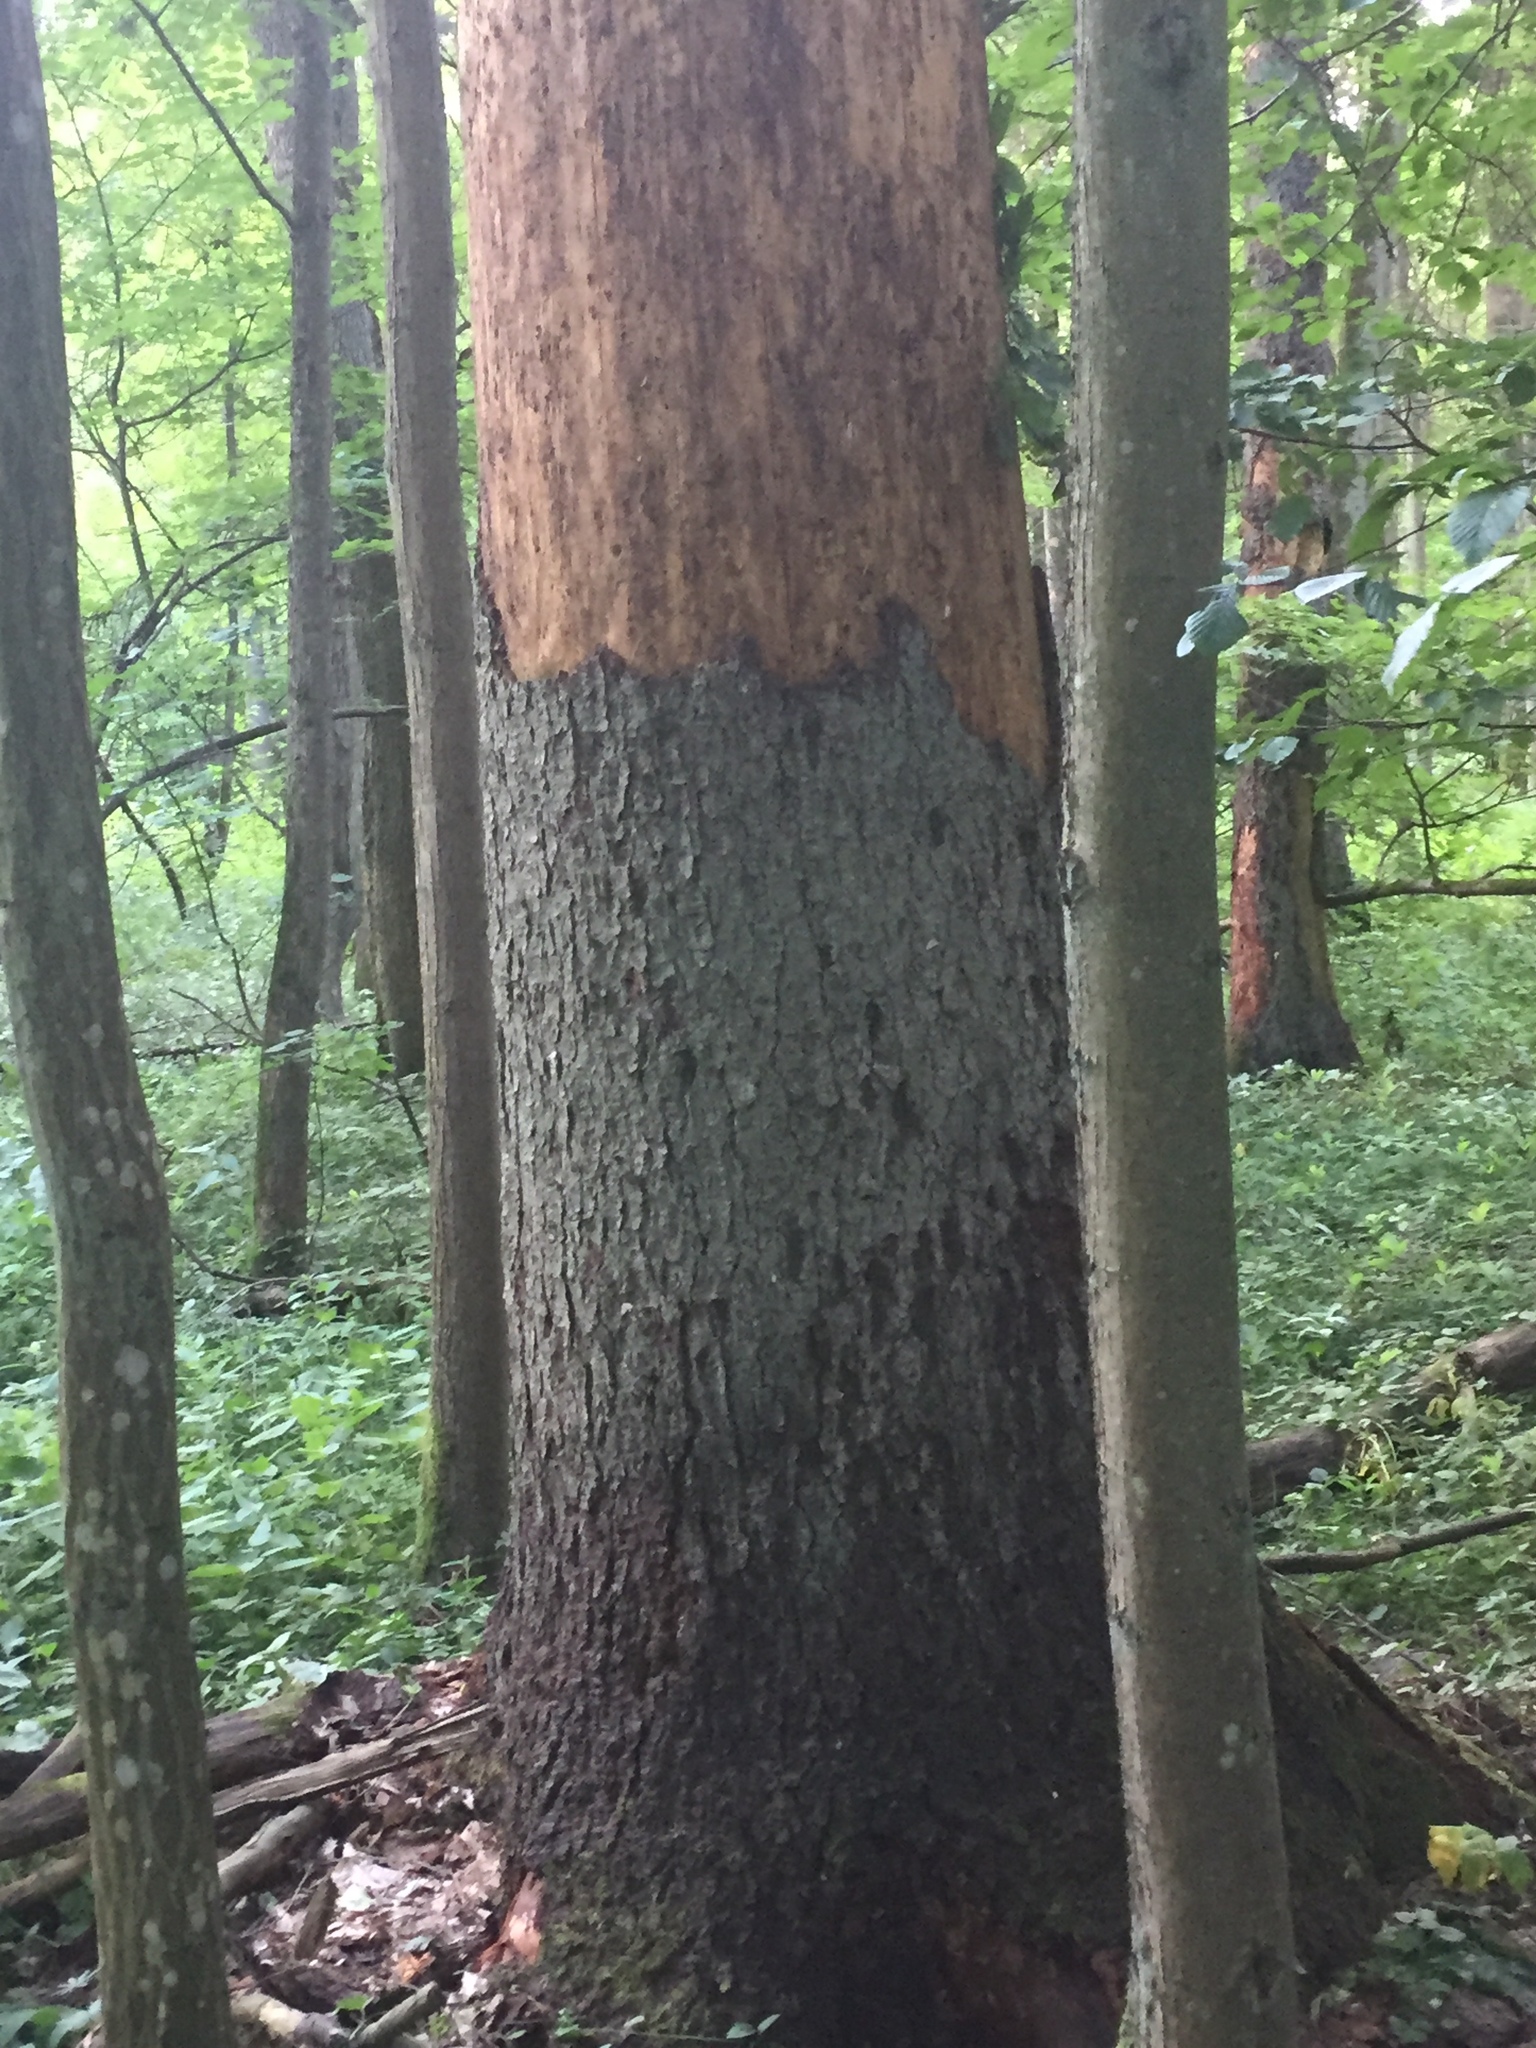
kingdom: Plantae
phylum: Tracheophyta
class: Pinopsida
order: Pinales
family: Pinaceae
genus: Picea
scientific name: Picea abies
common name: Norway spruce
